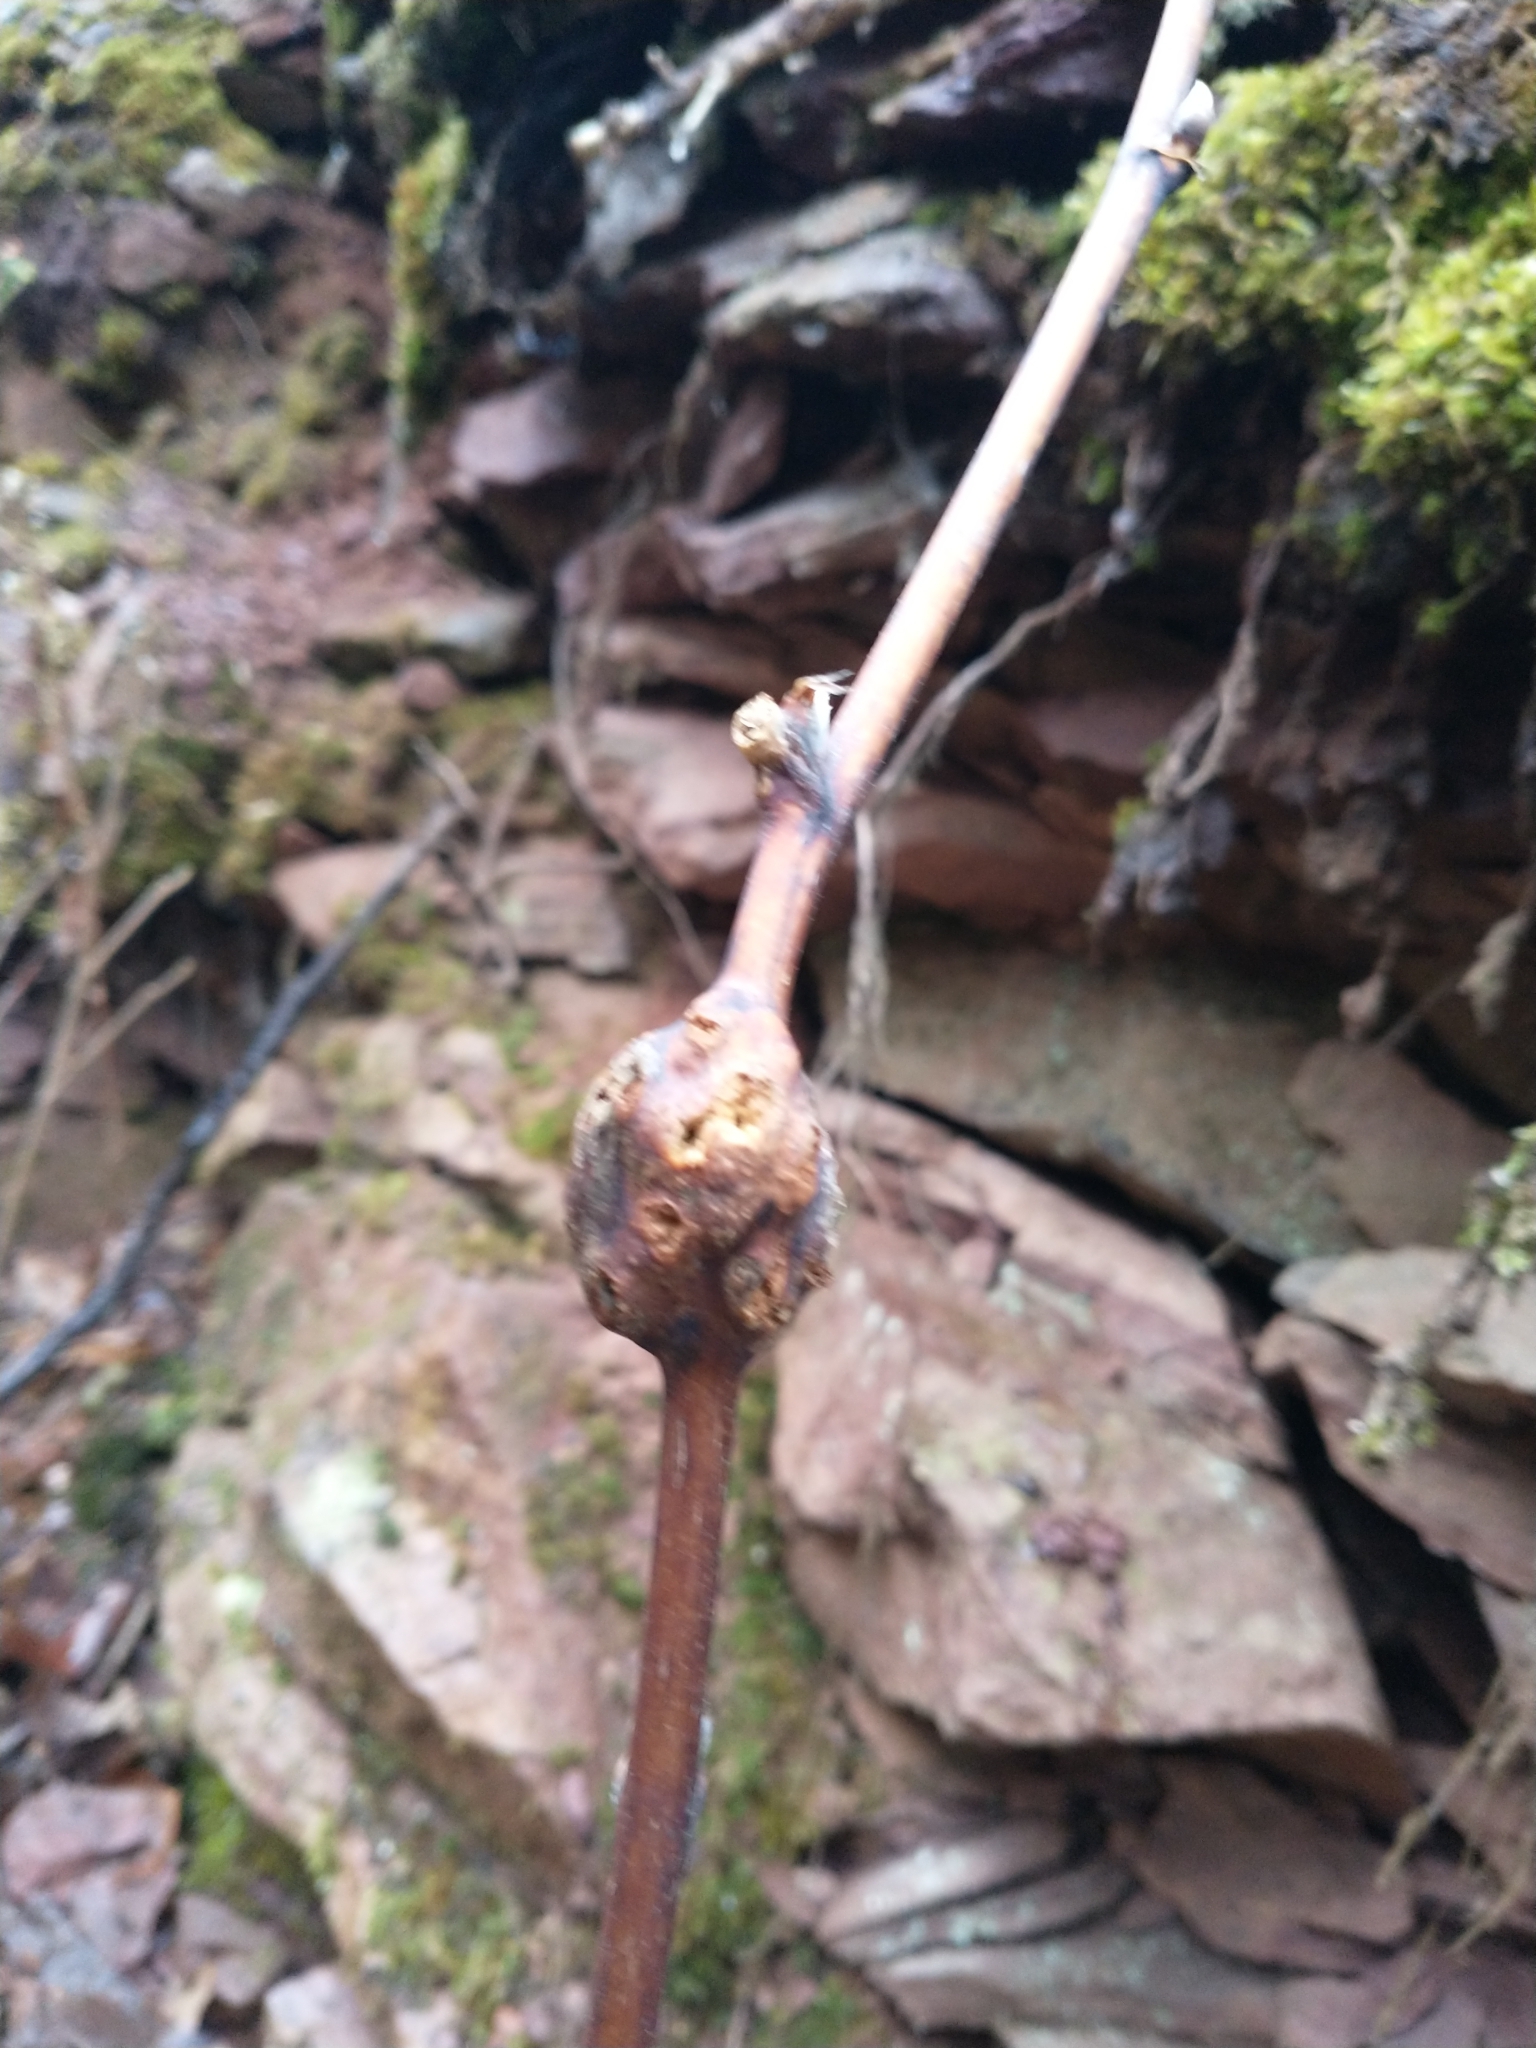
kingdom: Animalia
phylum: Arthropoda
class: Insecta
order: Hymenoptera
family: Cynipidae
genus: Diastrophus
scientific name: Diastrophus
